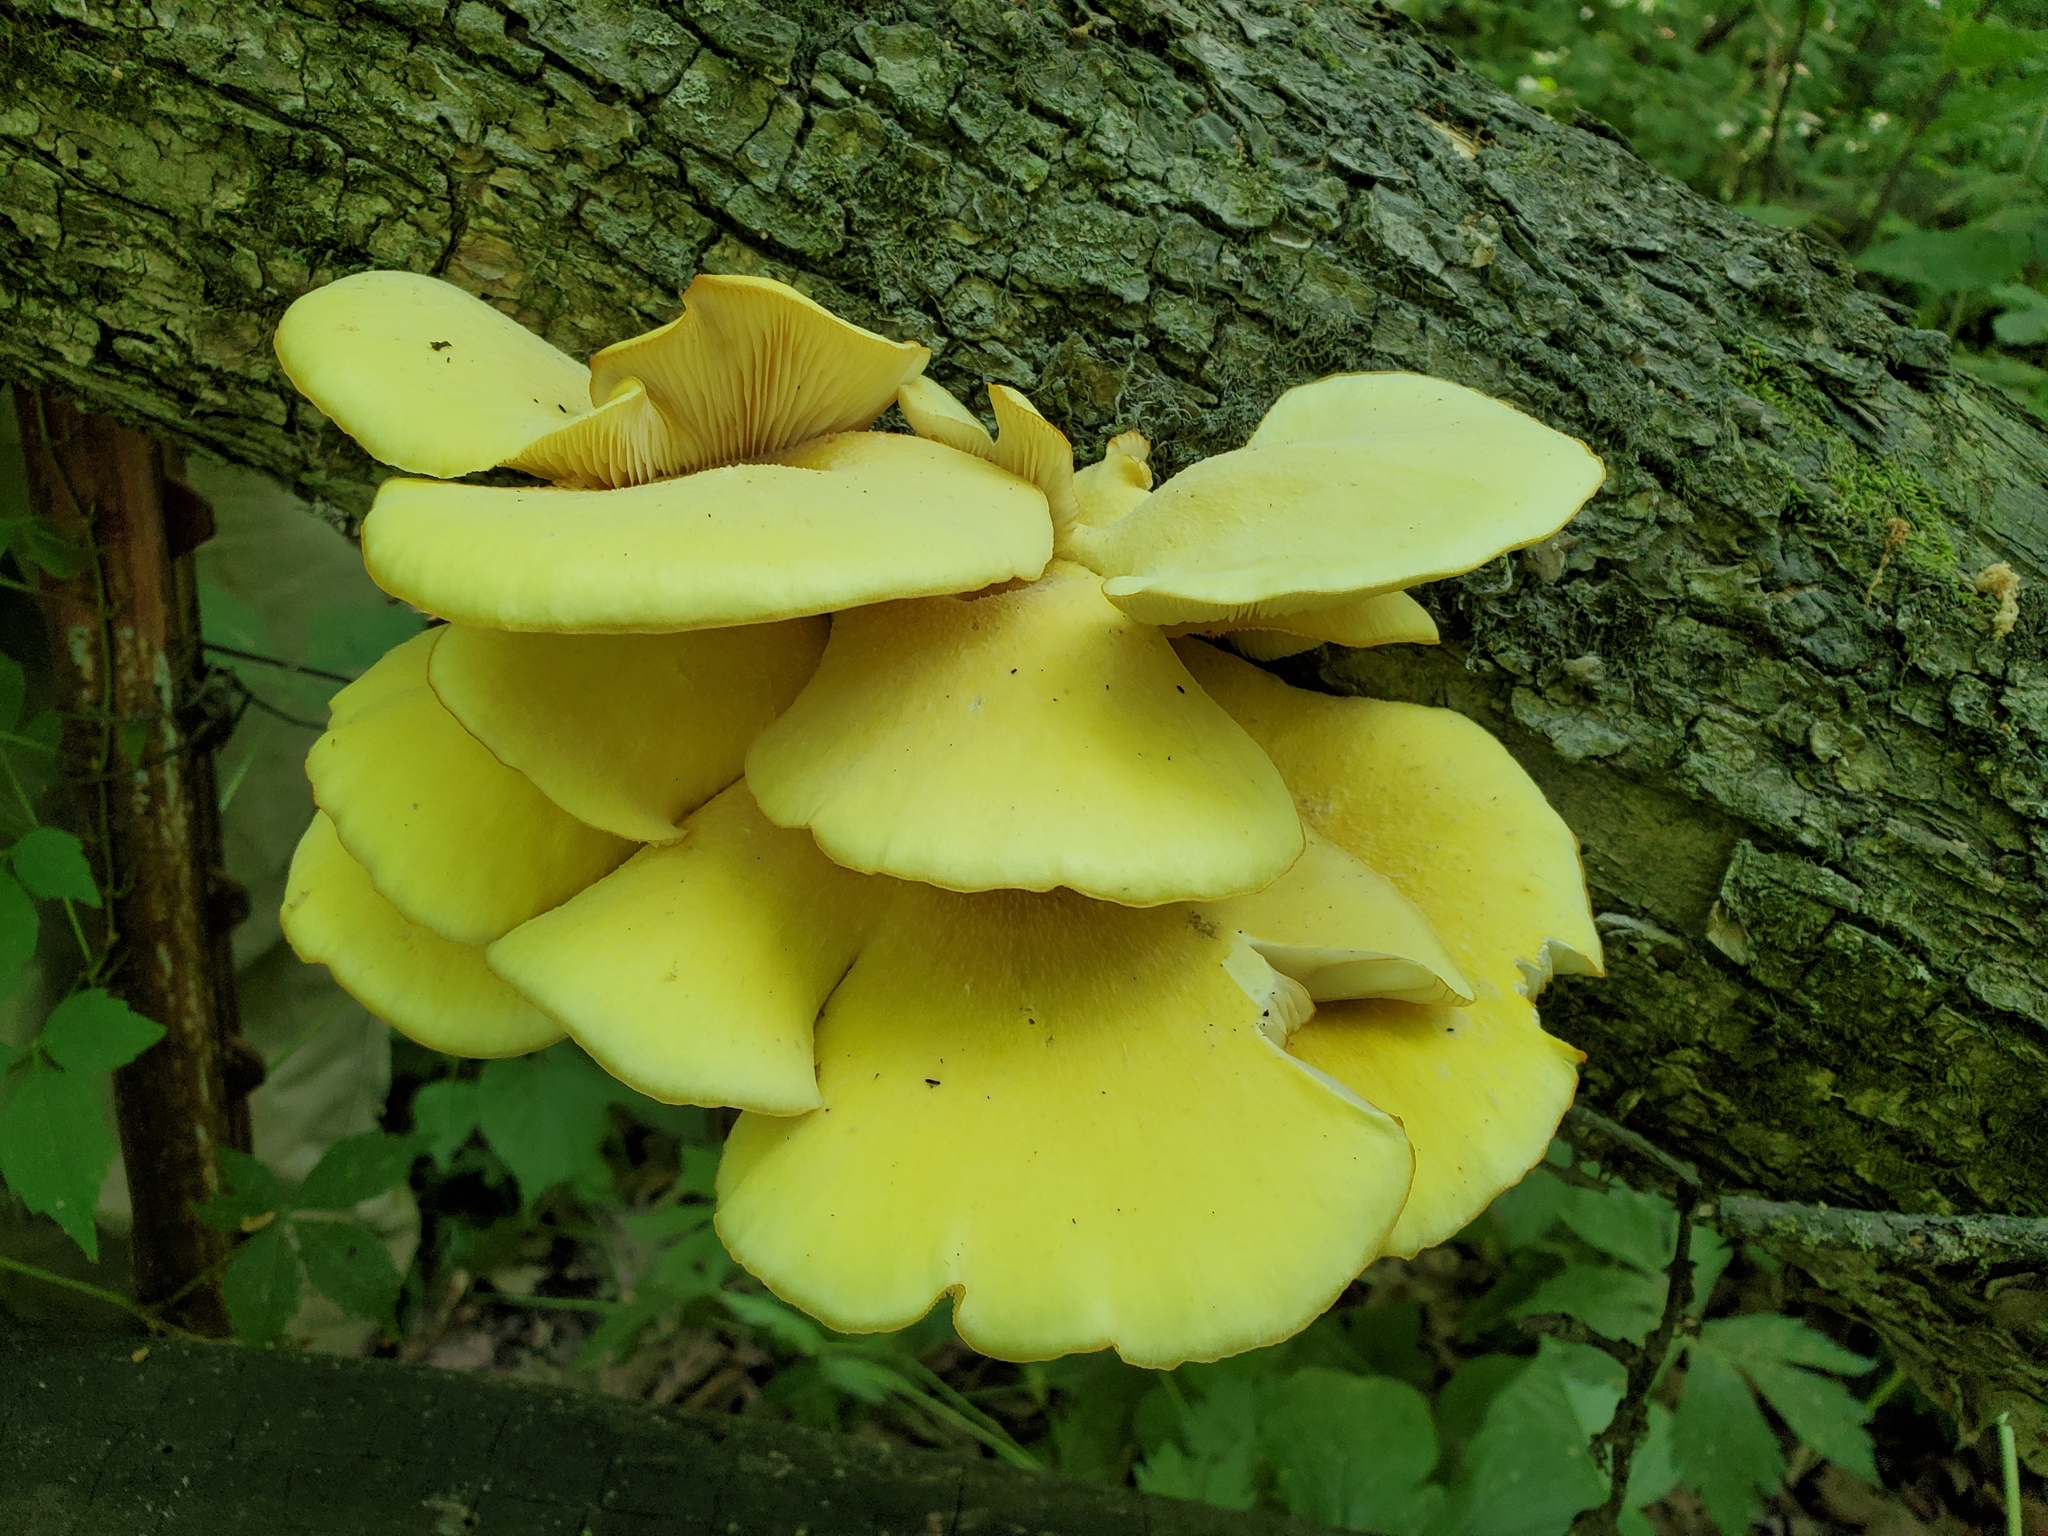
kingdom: Fungi
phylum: Basidiomycota
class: Agaricomycetes
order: Agaricales
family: Pleurotaceae
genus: Pleurotus
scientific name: Pleurotus citrinopileatus
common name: Golden oyster mushroom
